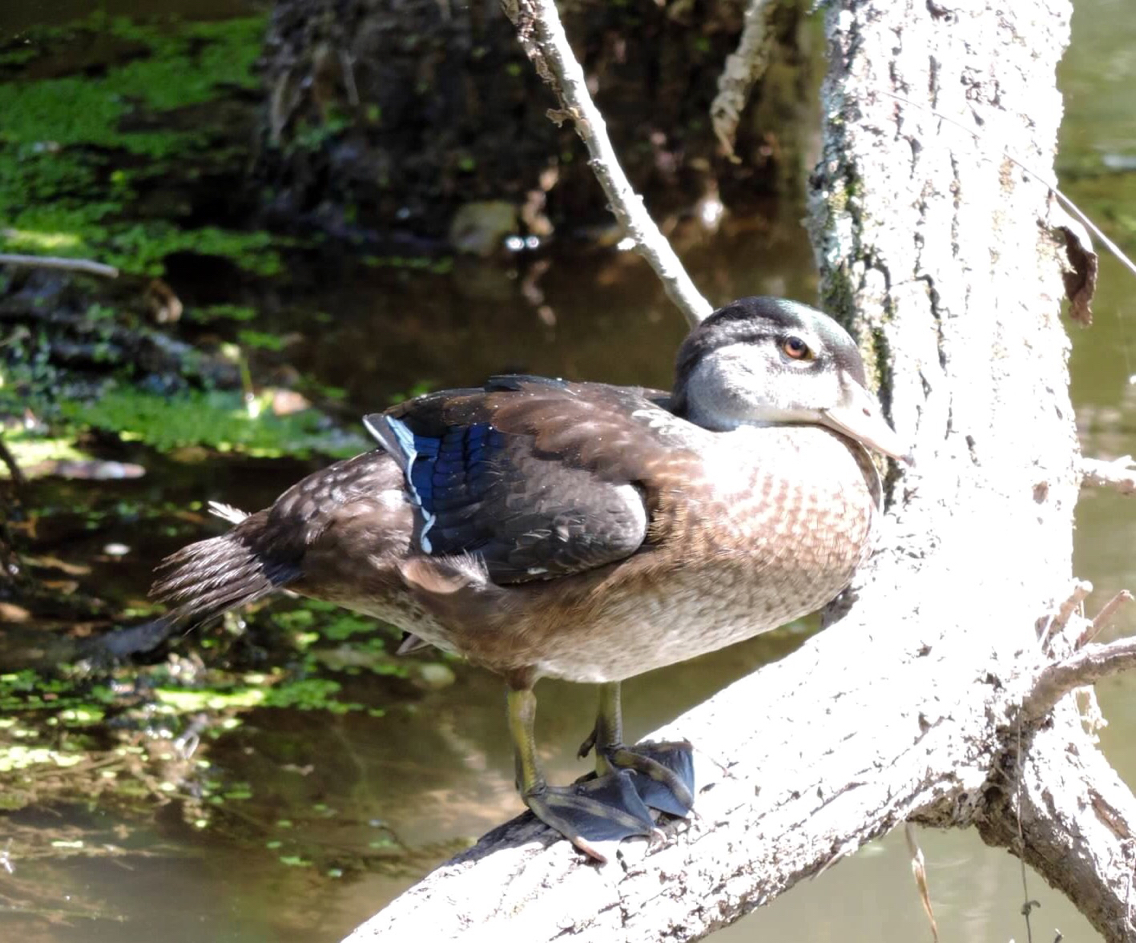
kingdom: Animalia
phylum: Chordata
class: Aves
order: Anseriformes
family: Anatidae
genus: Aix
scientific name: Aix sponsa
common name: Wood duck
